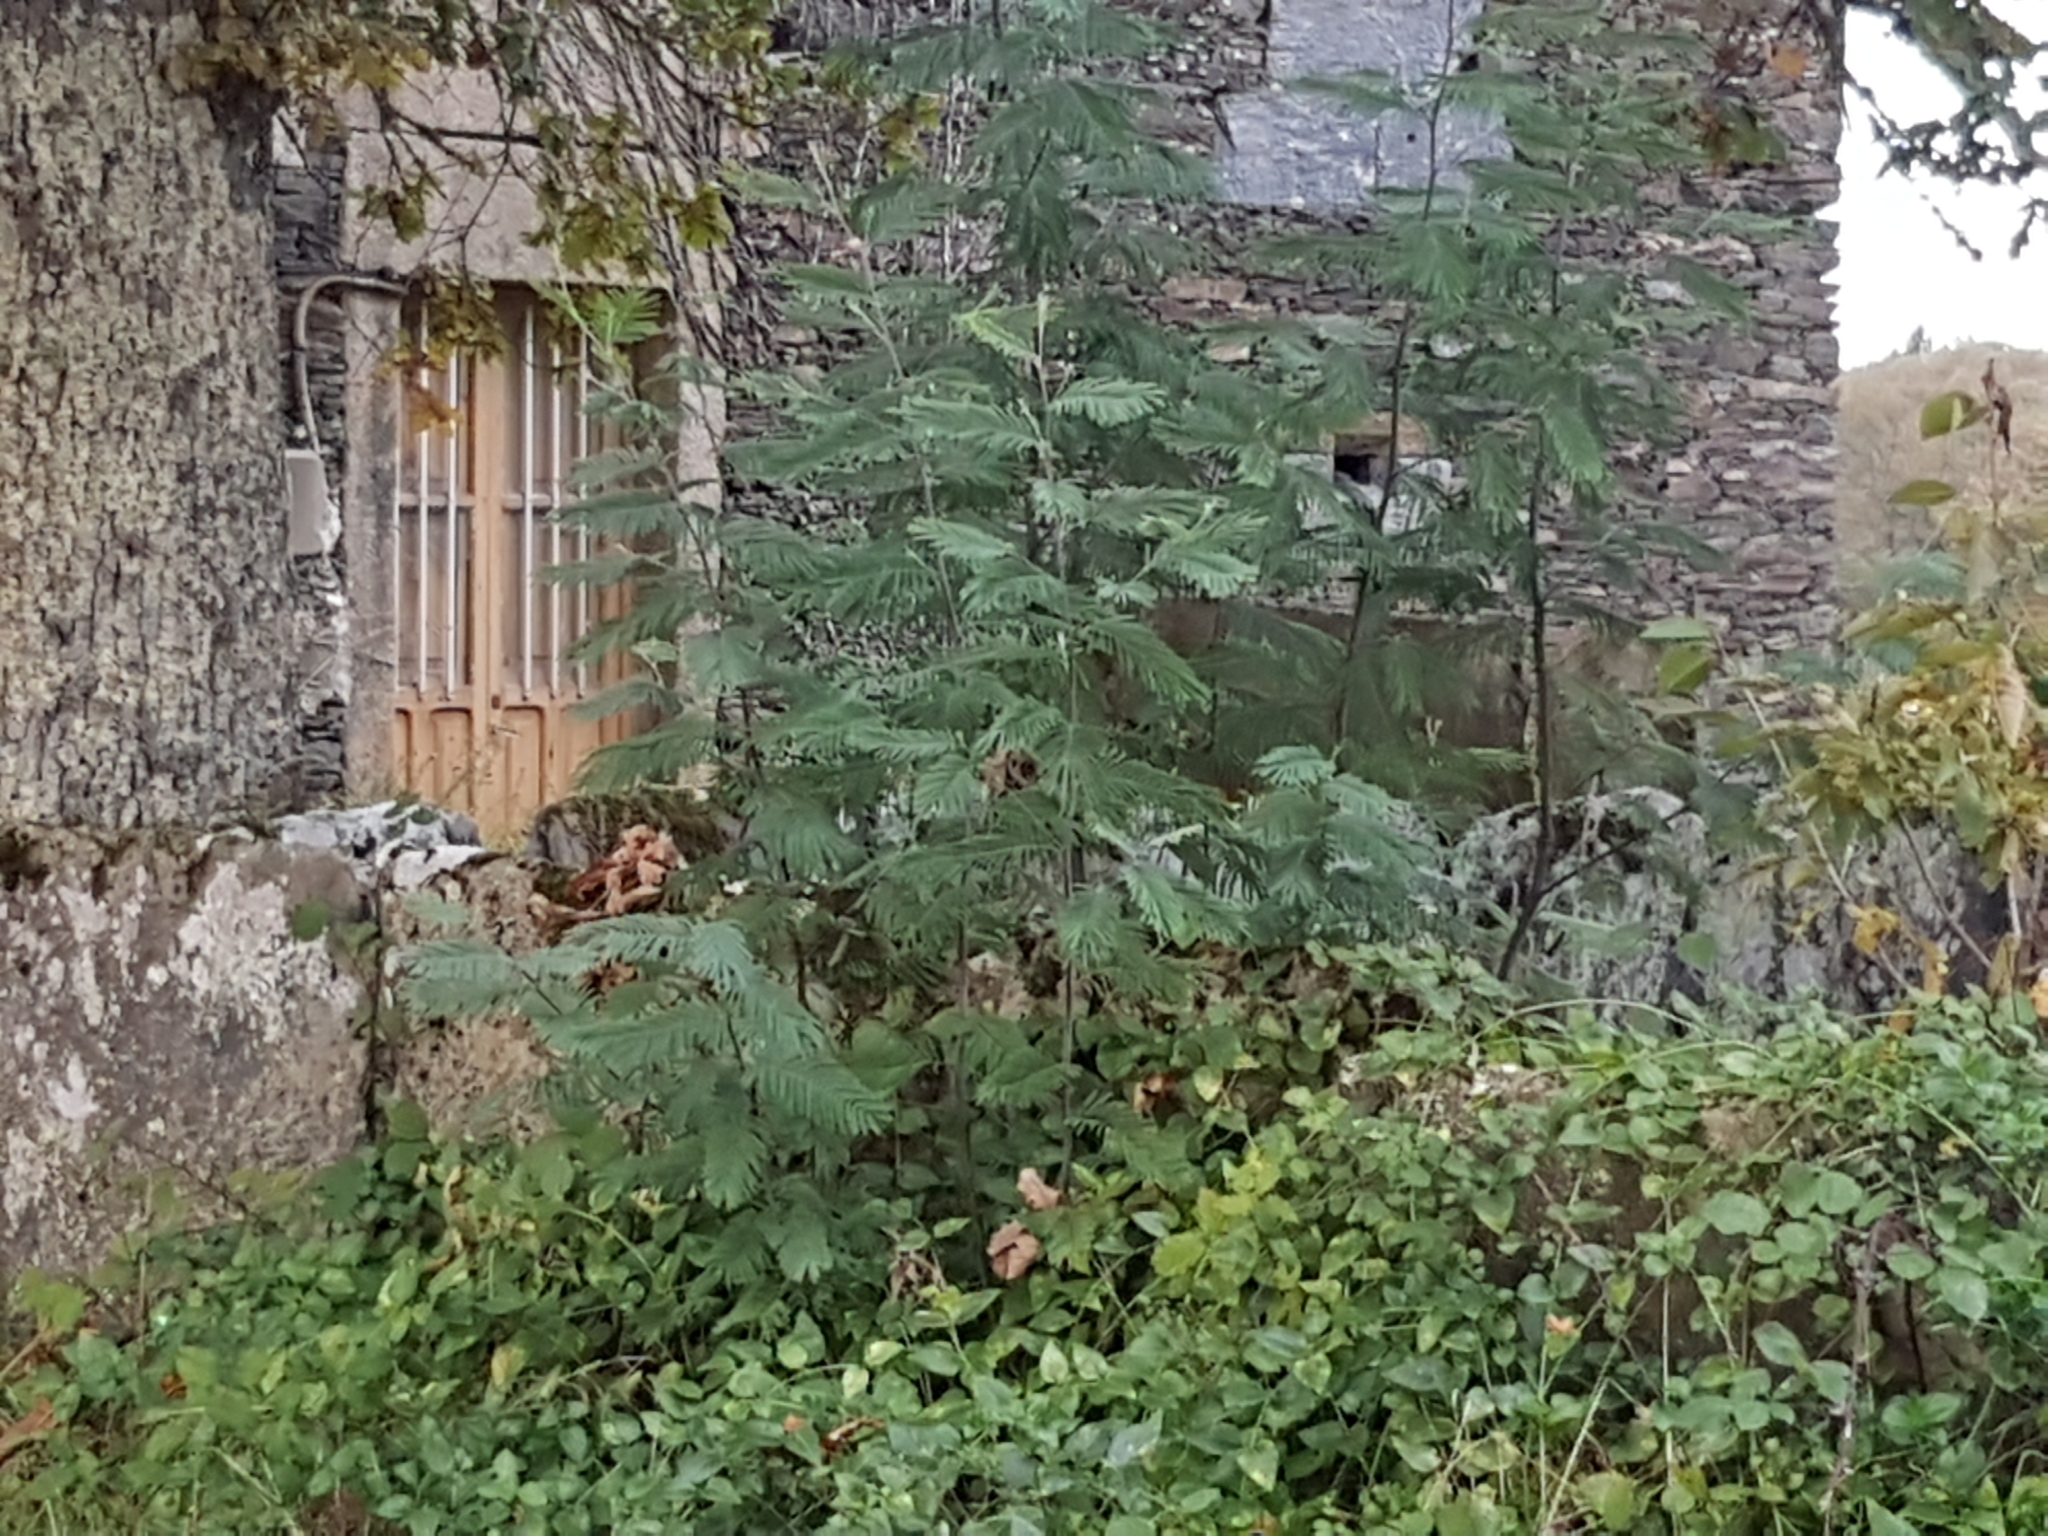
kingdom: Plantae
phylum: Tracheophyta
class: Magnoliopsida
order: Fabales
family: Fabaceae
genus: Acacia
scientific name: Acacia dealbata
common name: Silver wattle
